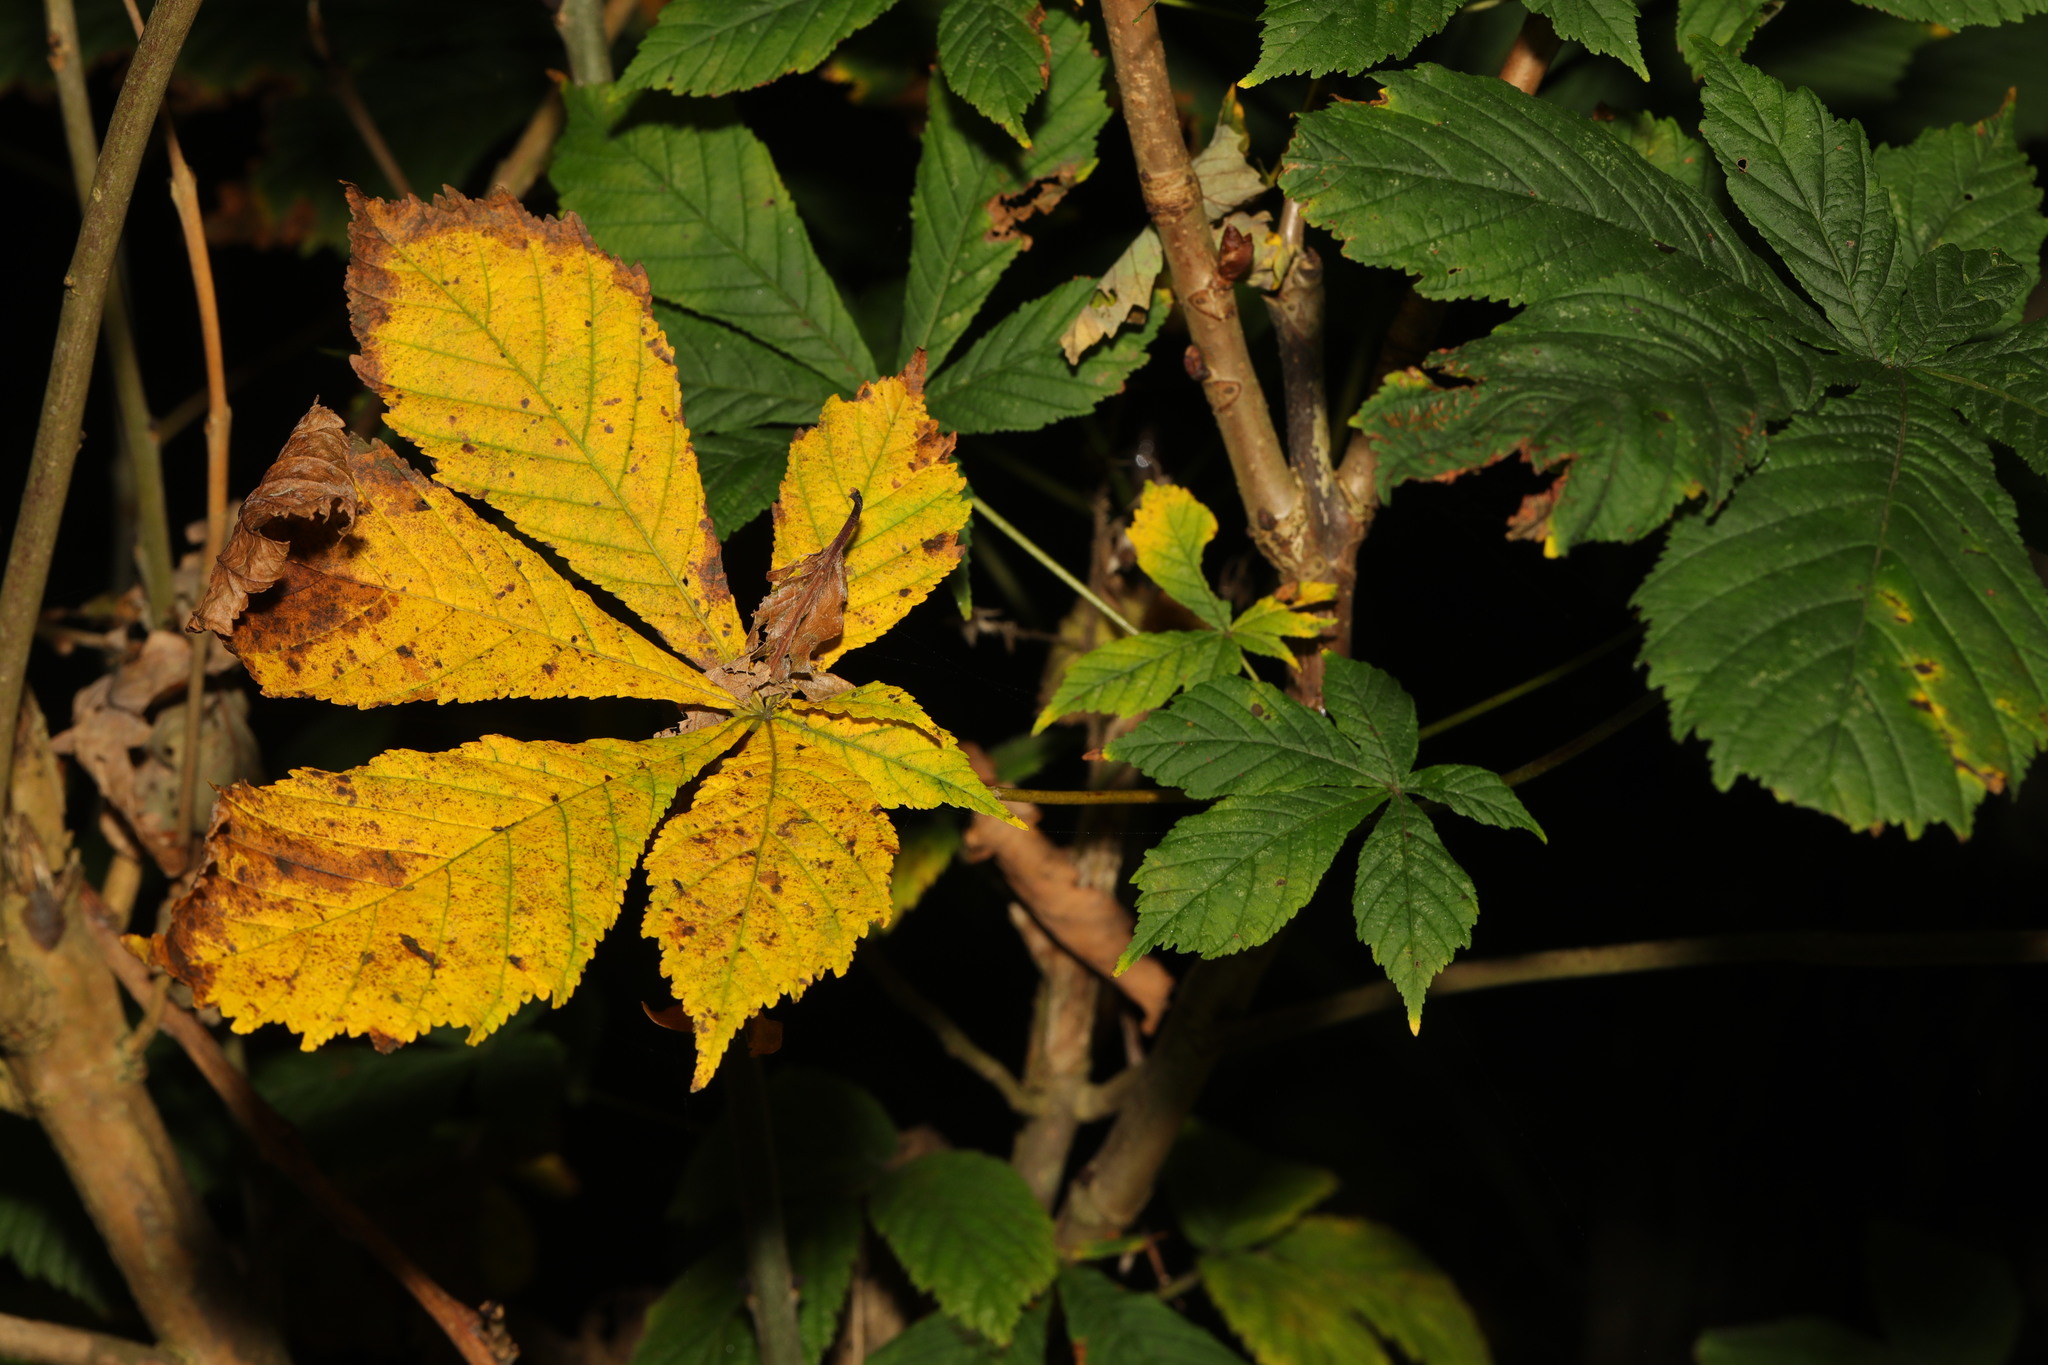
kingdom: Plantae
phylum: Tracheophyta
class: Magnoliopsida
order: Sapindales
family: Sapindaceae
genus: Aesculus
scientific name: Aesculus hippocastanum
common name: Horse-chestnut
